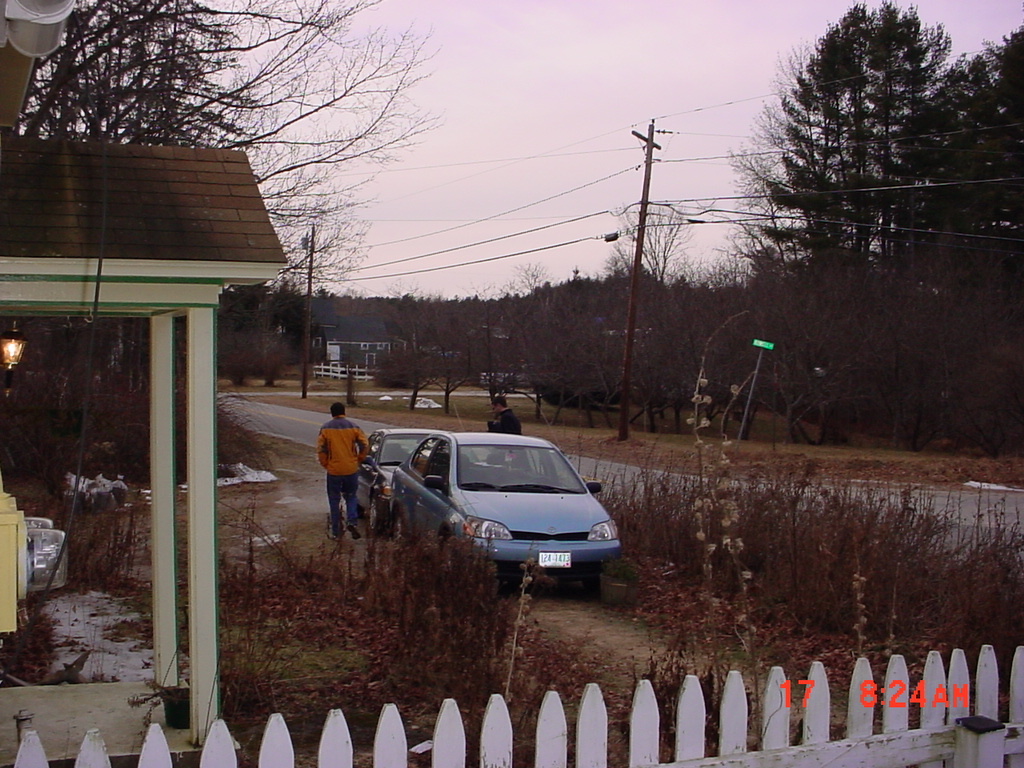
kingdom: Plantae
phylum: Tracheophyta
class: Pinopsida
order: Pinales
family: Pinaceae
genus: Pinus
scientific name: Pinus strobus
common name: Weymouth pine
